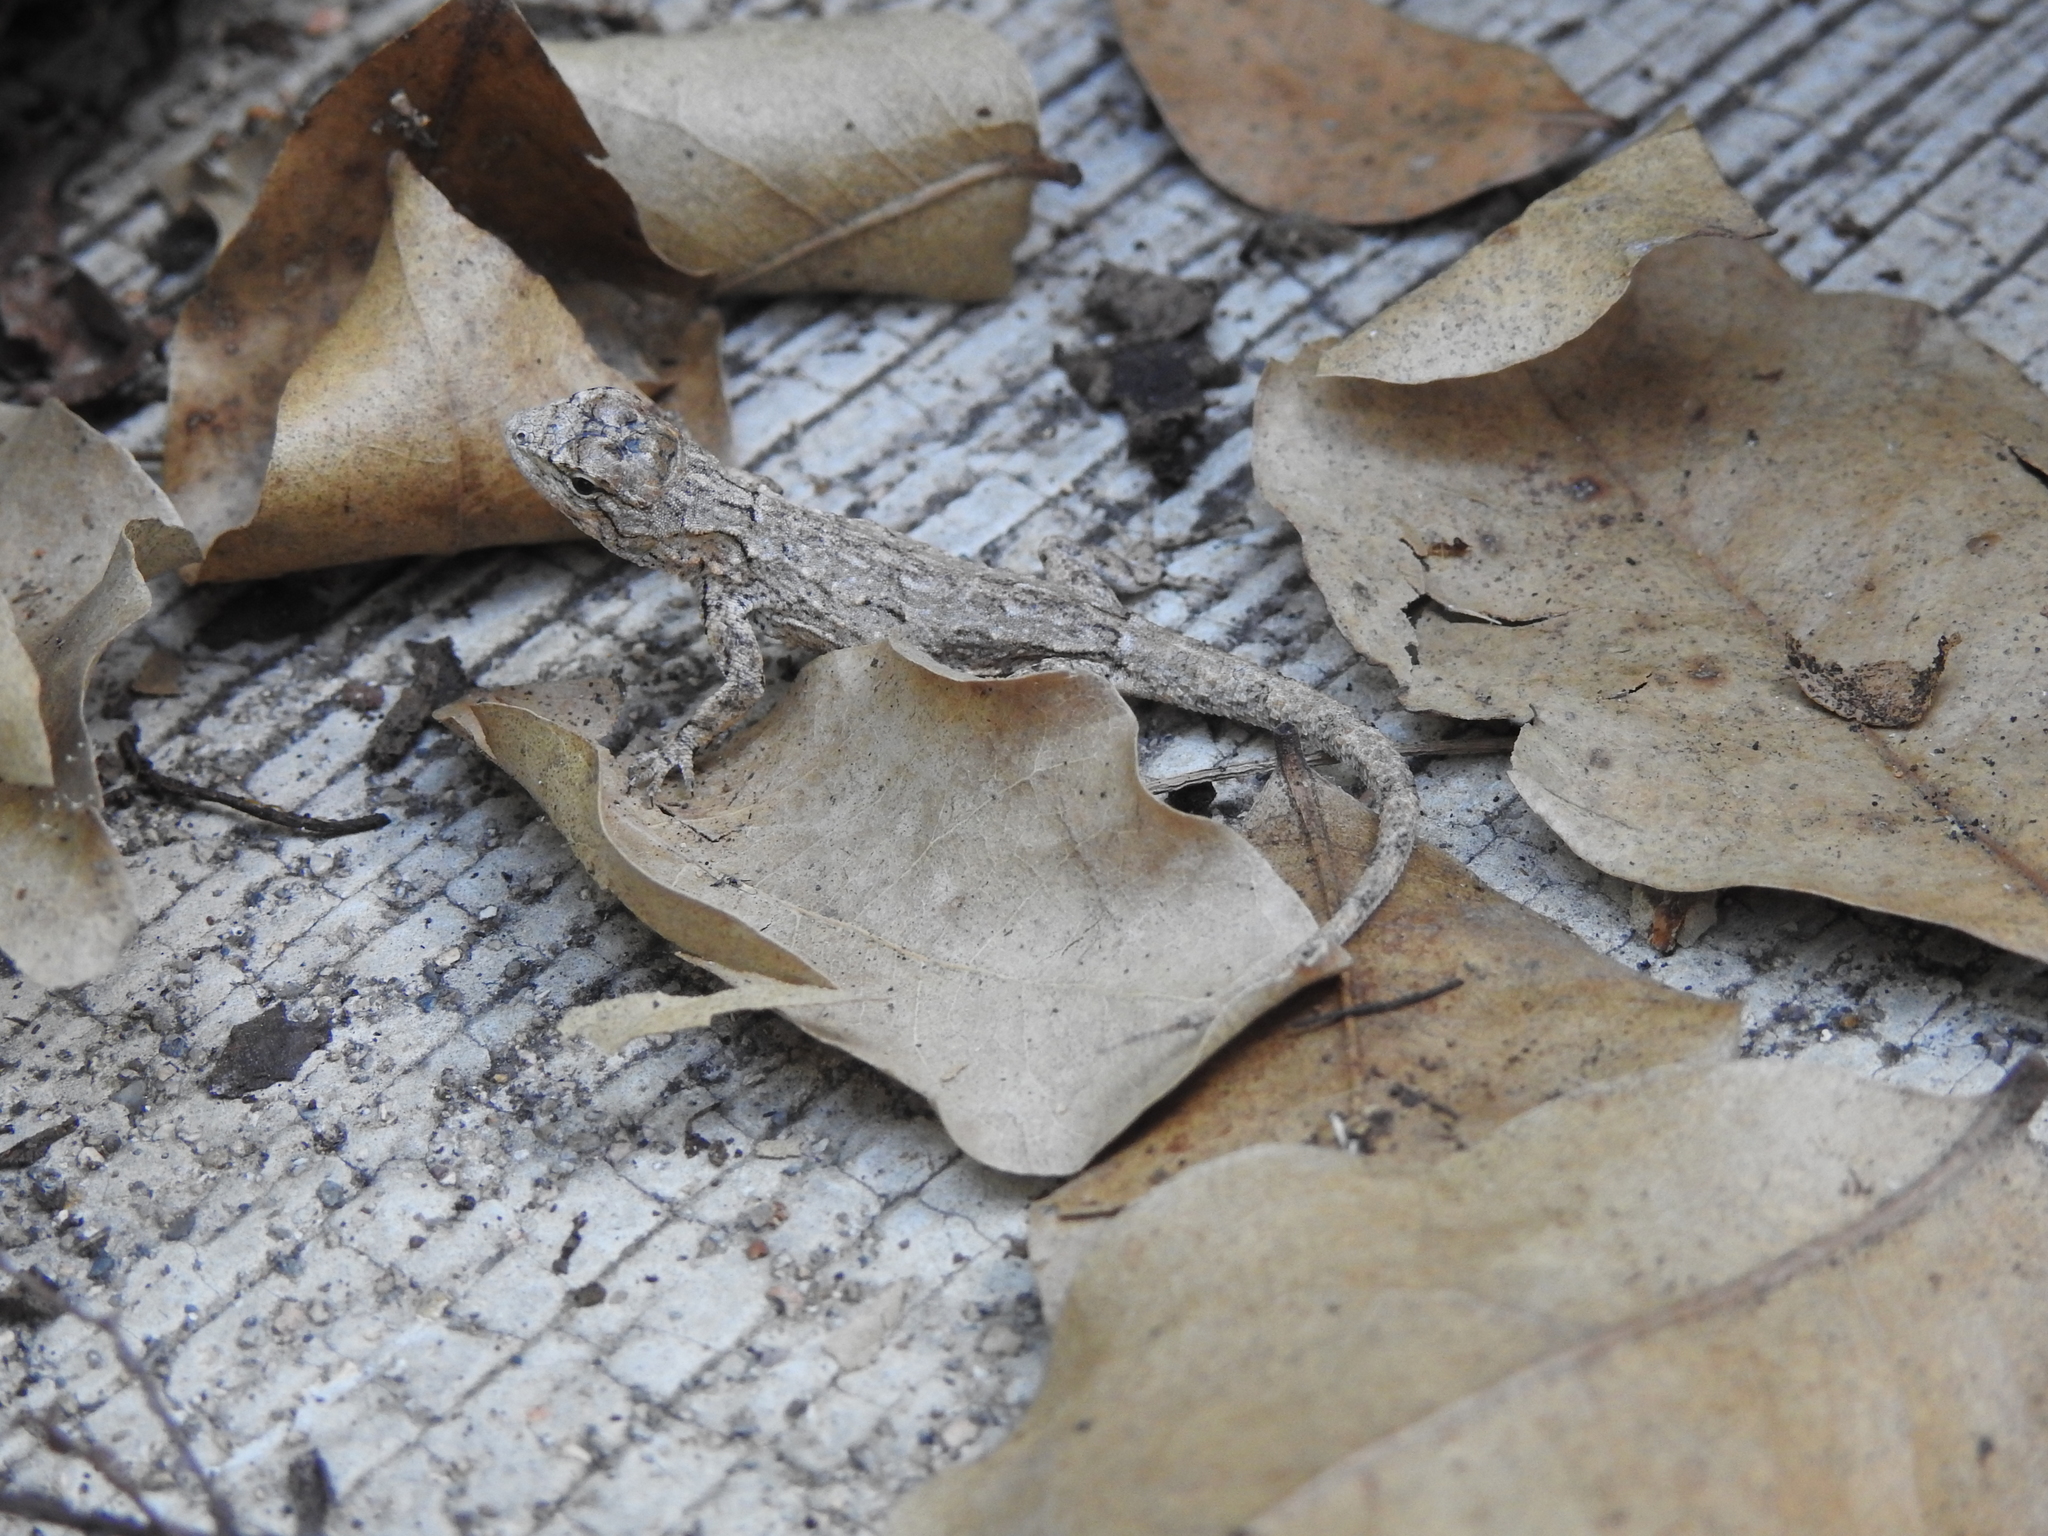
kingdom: Animalia
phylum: Chordata
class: Squamata
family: Phrynosomatidae
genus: Urosaurus
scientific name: Urosaurus bicarinatus
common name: Tropical tree lizard
